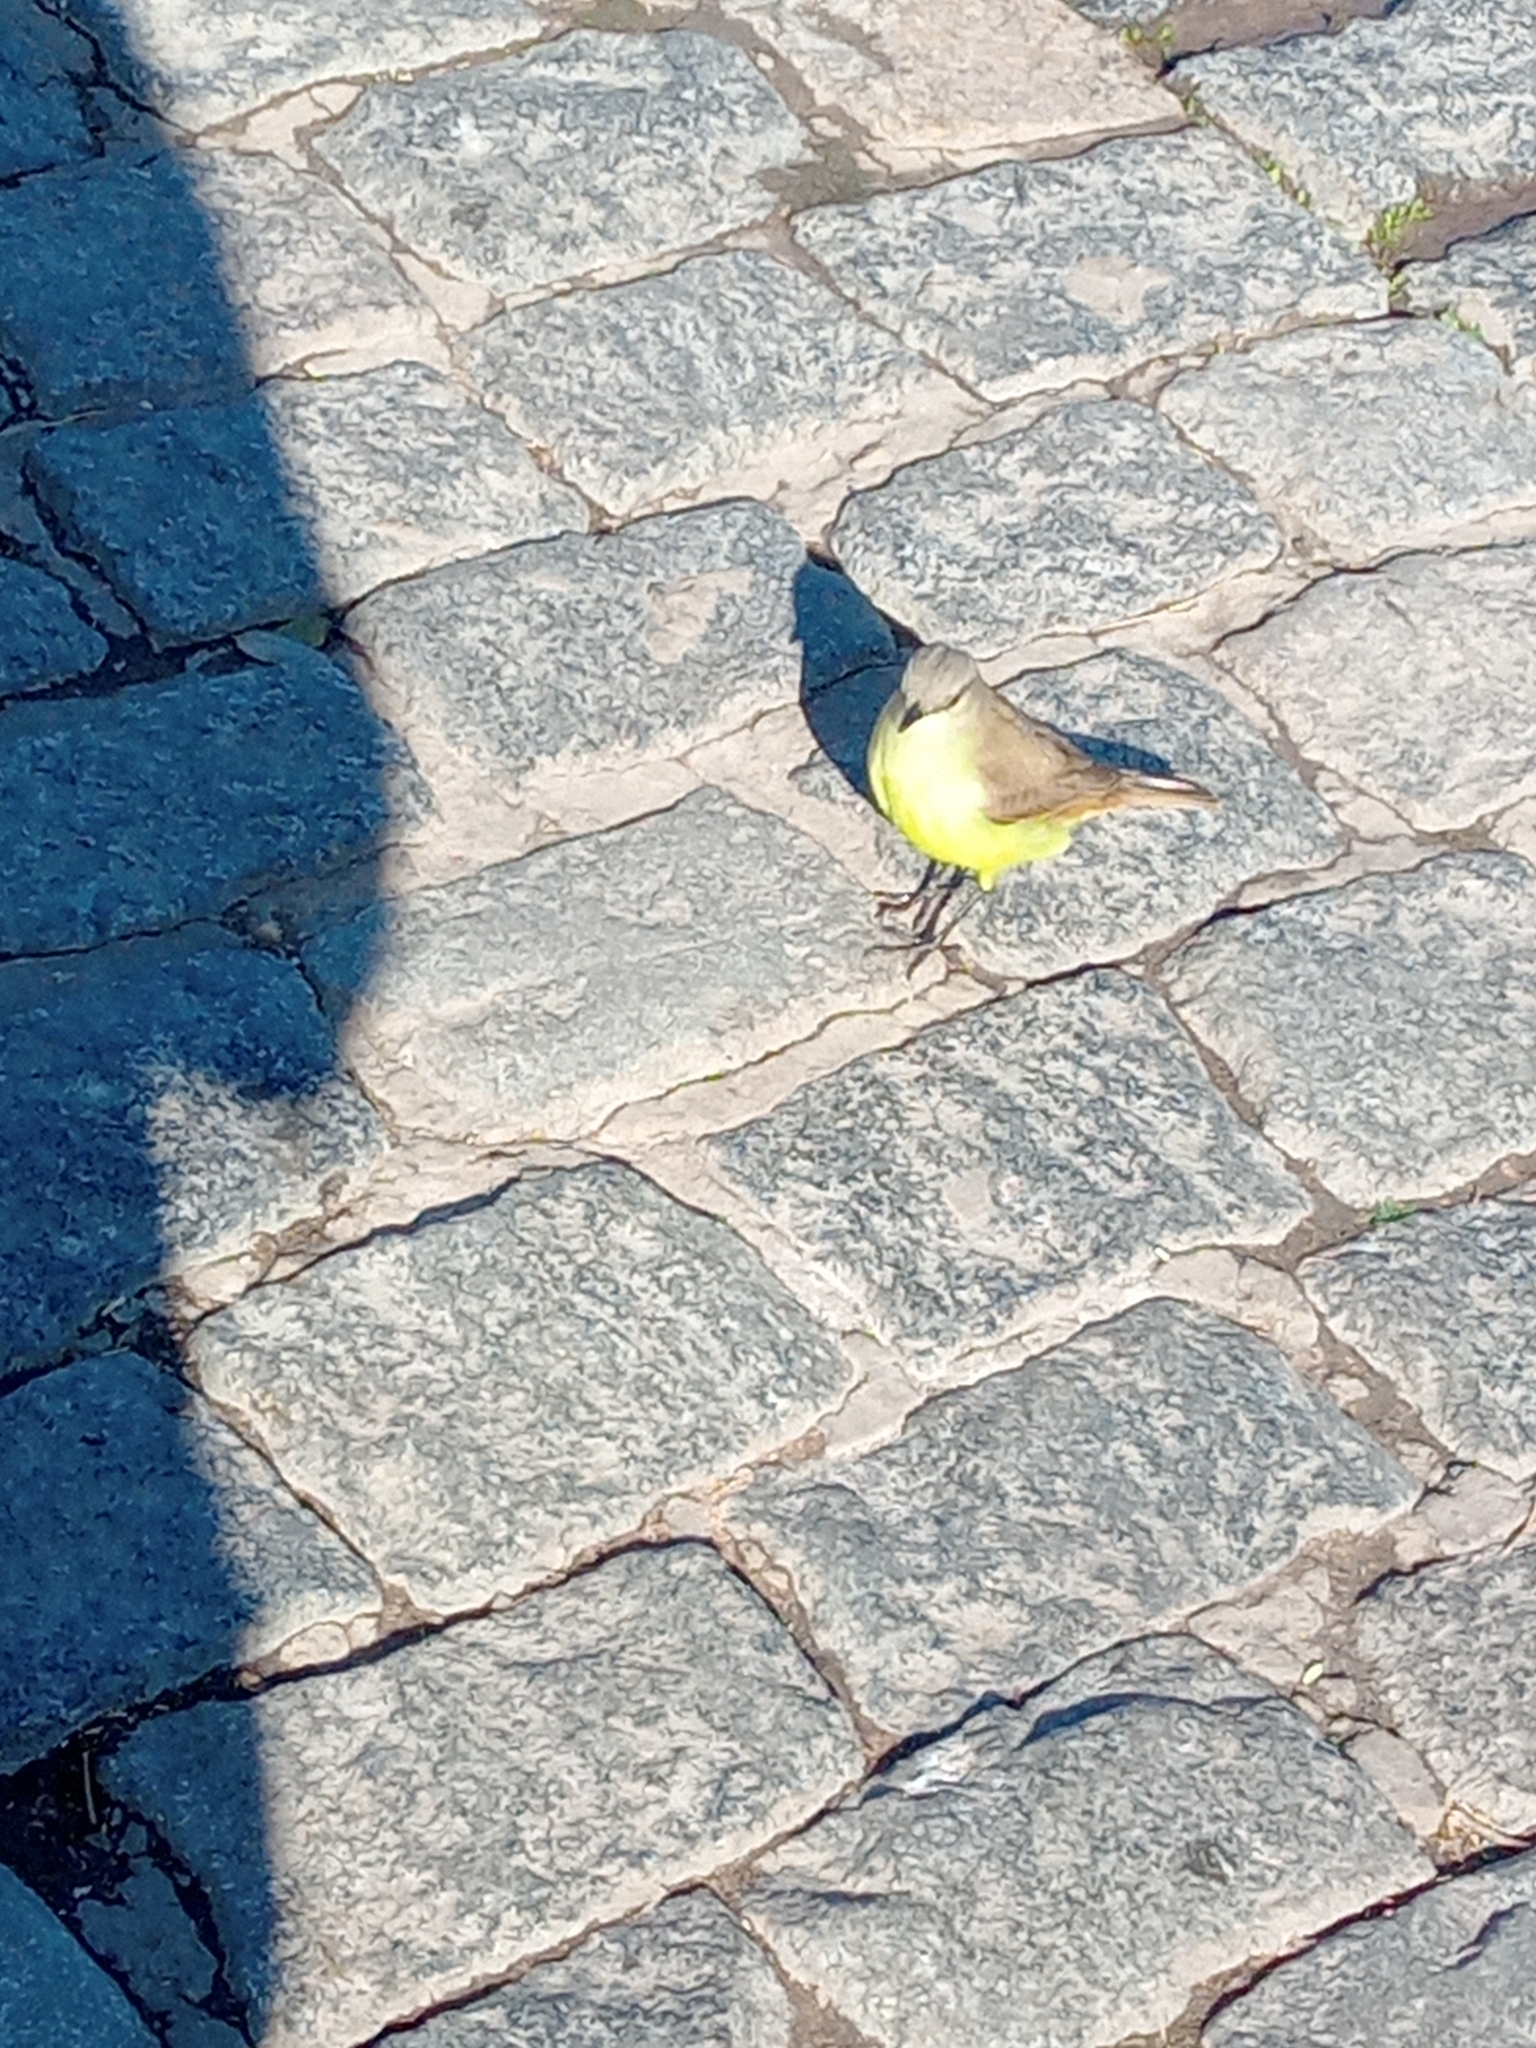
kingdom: Animalia
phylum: Chordata
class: Aves
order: Passeriformes
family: Tyrannidae
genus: Machetornis
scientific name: Machetornis rixosa
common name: Cattle tyrant
